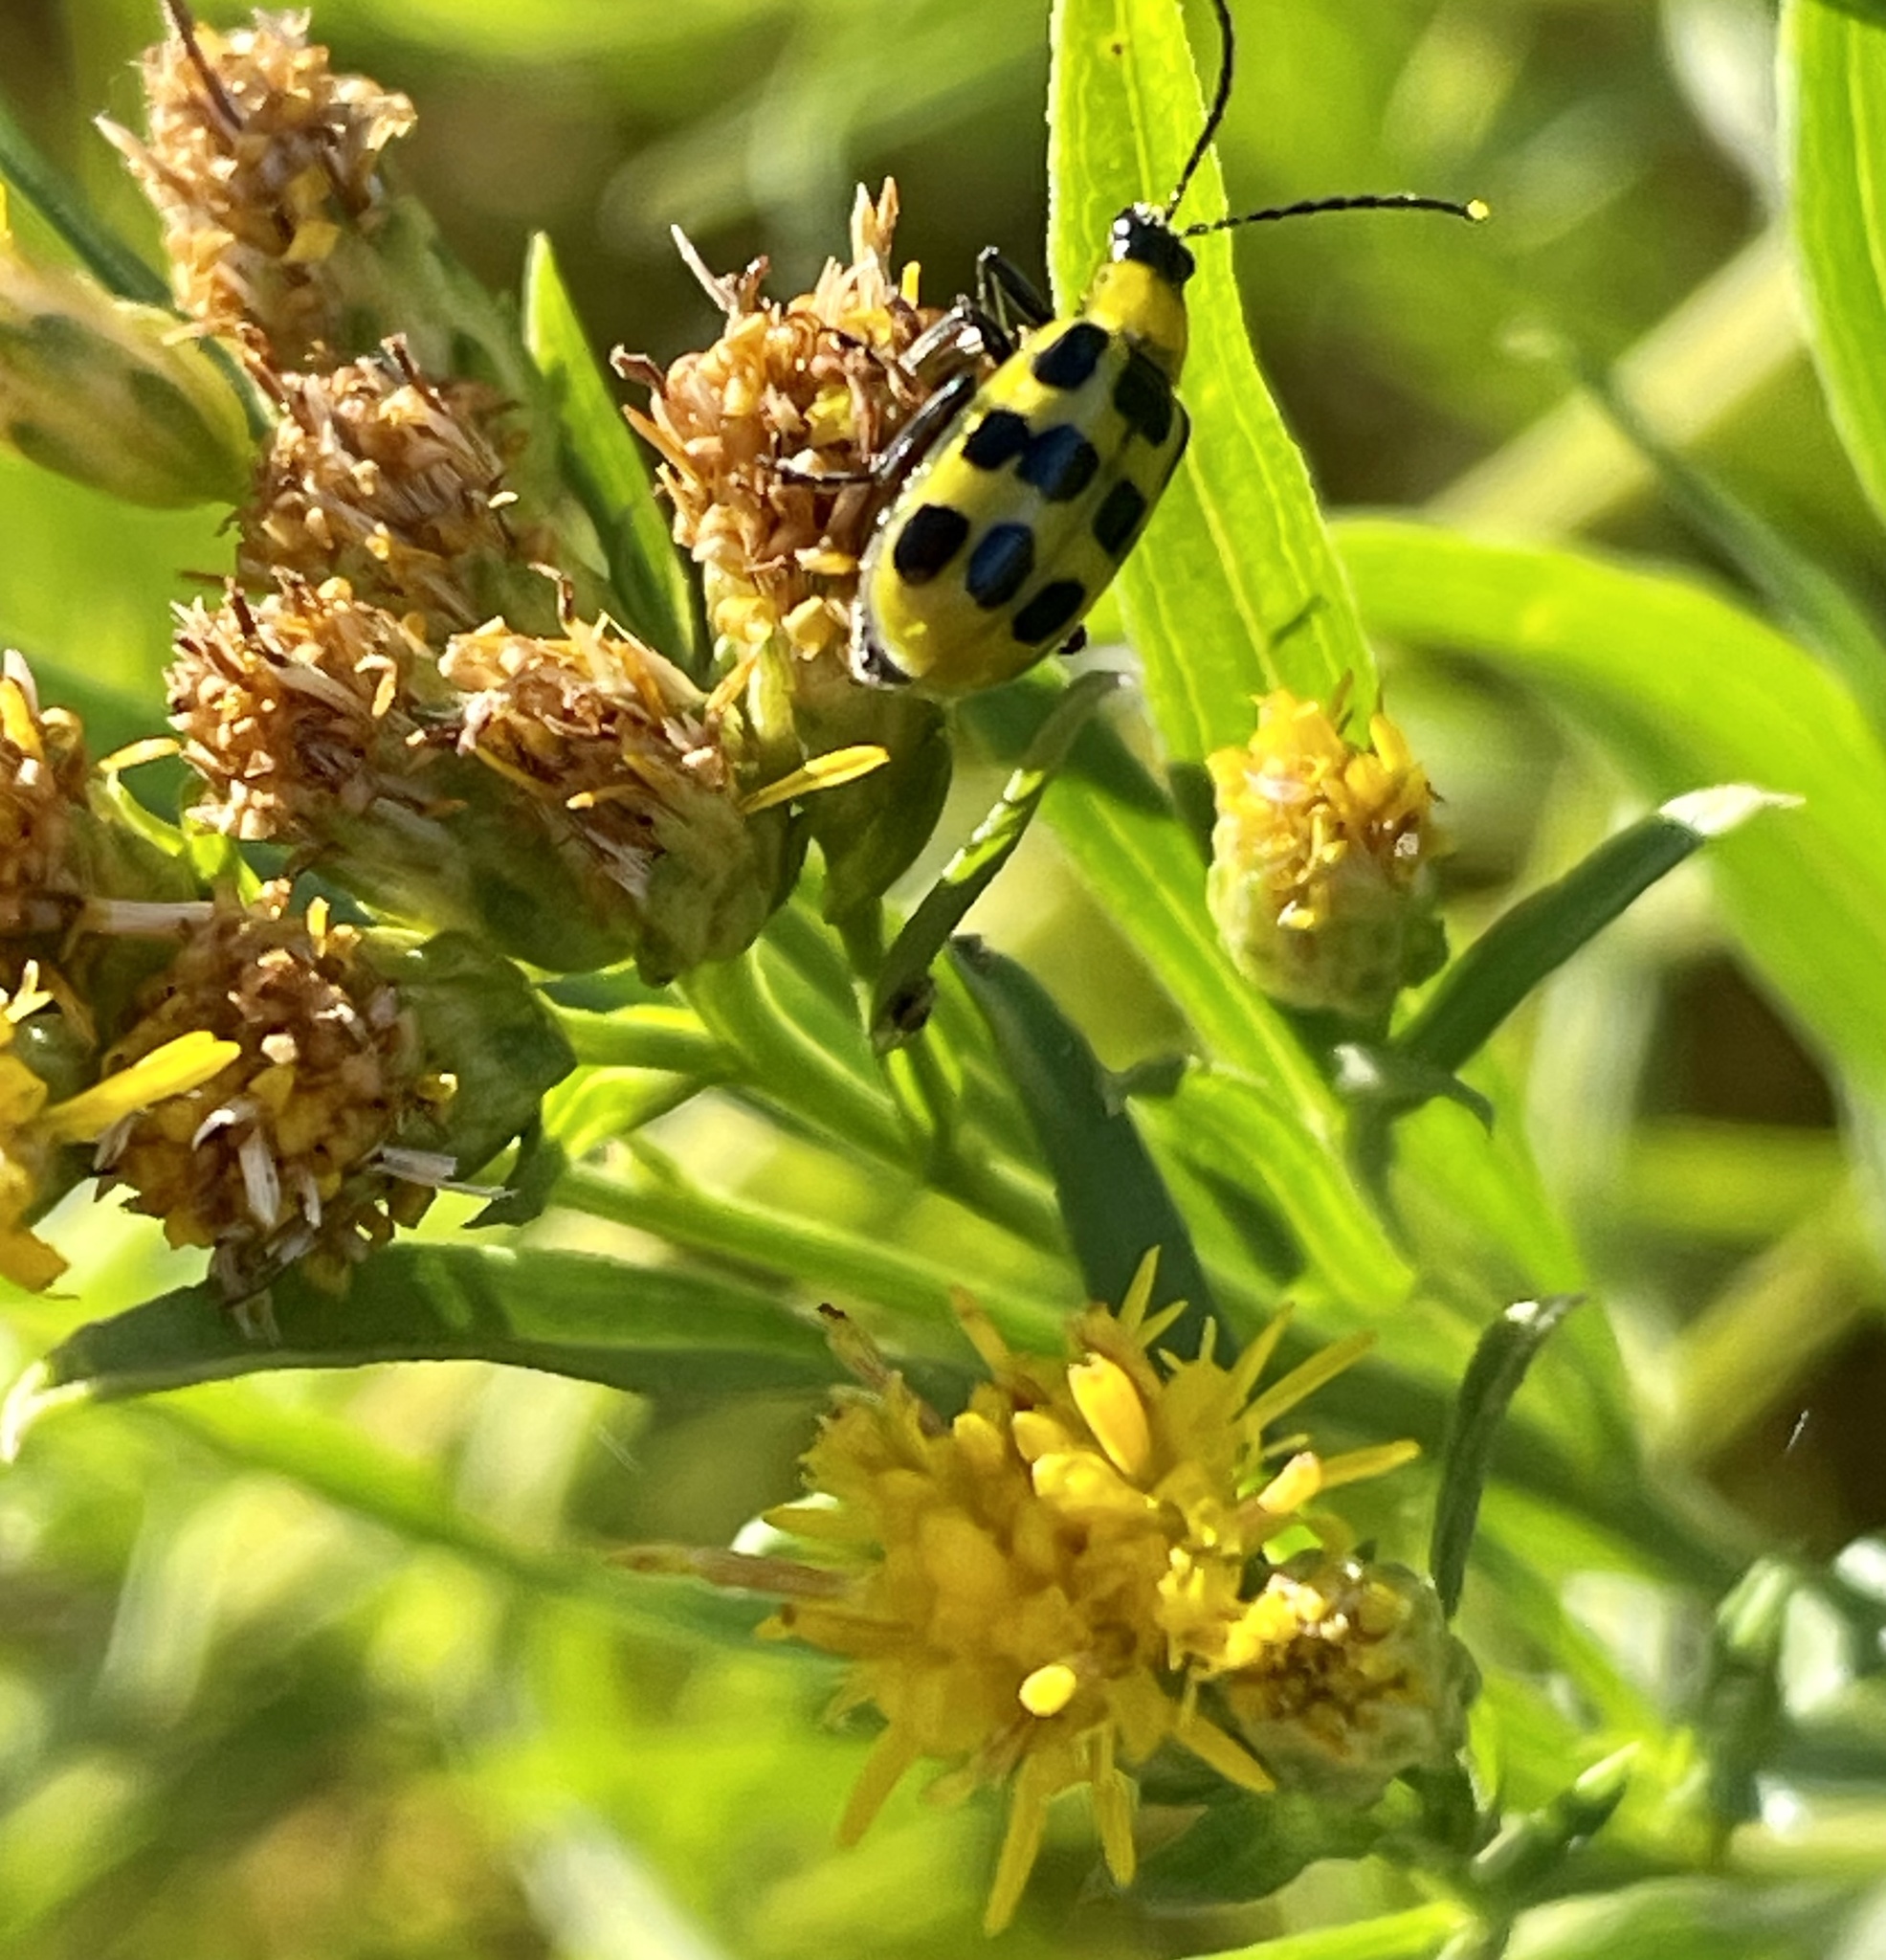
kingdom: Plantae
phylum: Tracheophyta
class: Magnoliopsida
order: Asterales
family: Asteraceae
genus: Euthamia
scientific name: Euthamia occidentalis
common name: Western goldentop
